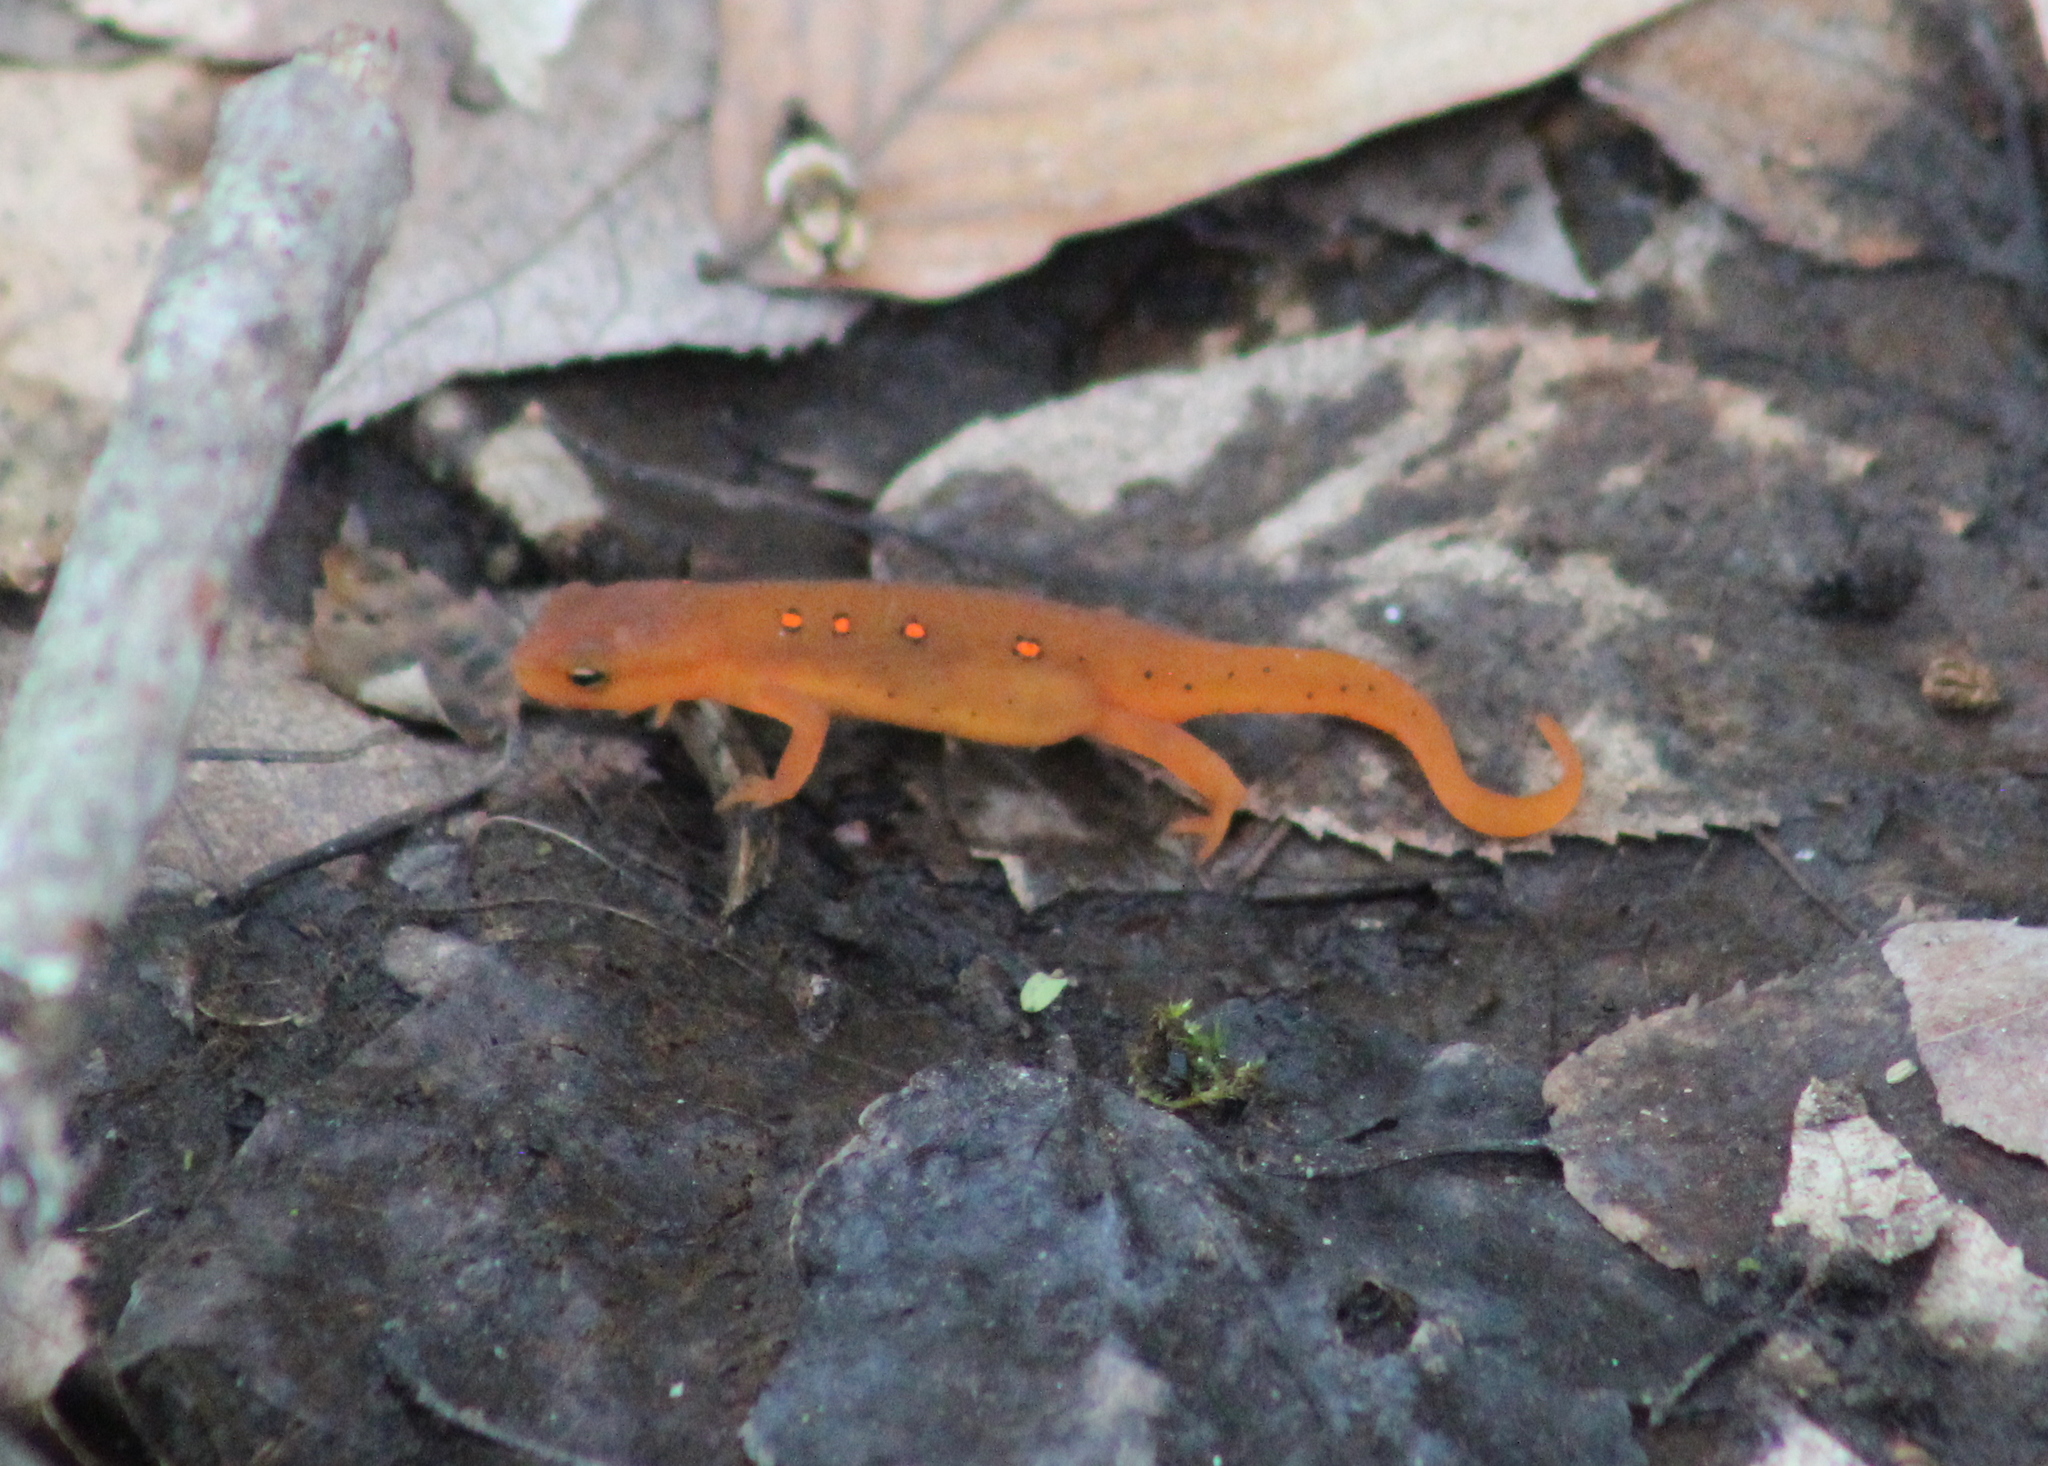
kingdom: Animalia
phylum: Chordata
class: Amphibia
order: Caudata
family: Salamandridae
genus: Notophthalmus
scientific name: Notophthalmus viridescens
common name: Eastern newt
